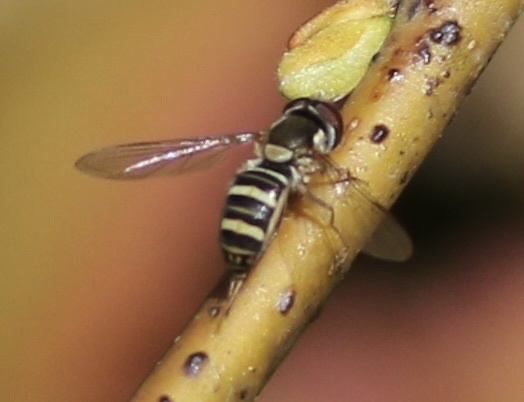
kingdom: Animalia
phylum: Arthropoda
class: Insecta
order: Diptera
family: Syrphidae
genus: Fazia
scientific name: Fazia micrura
